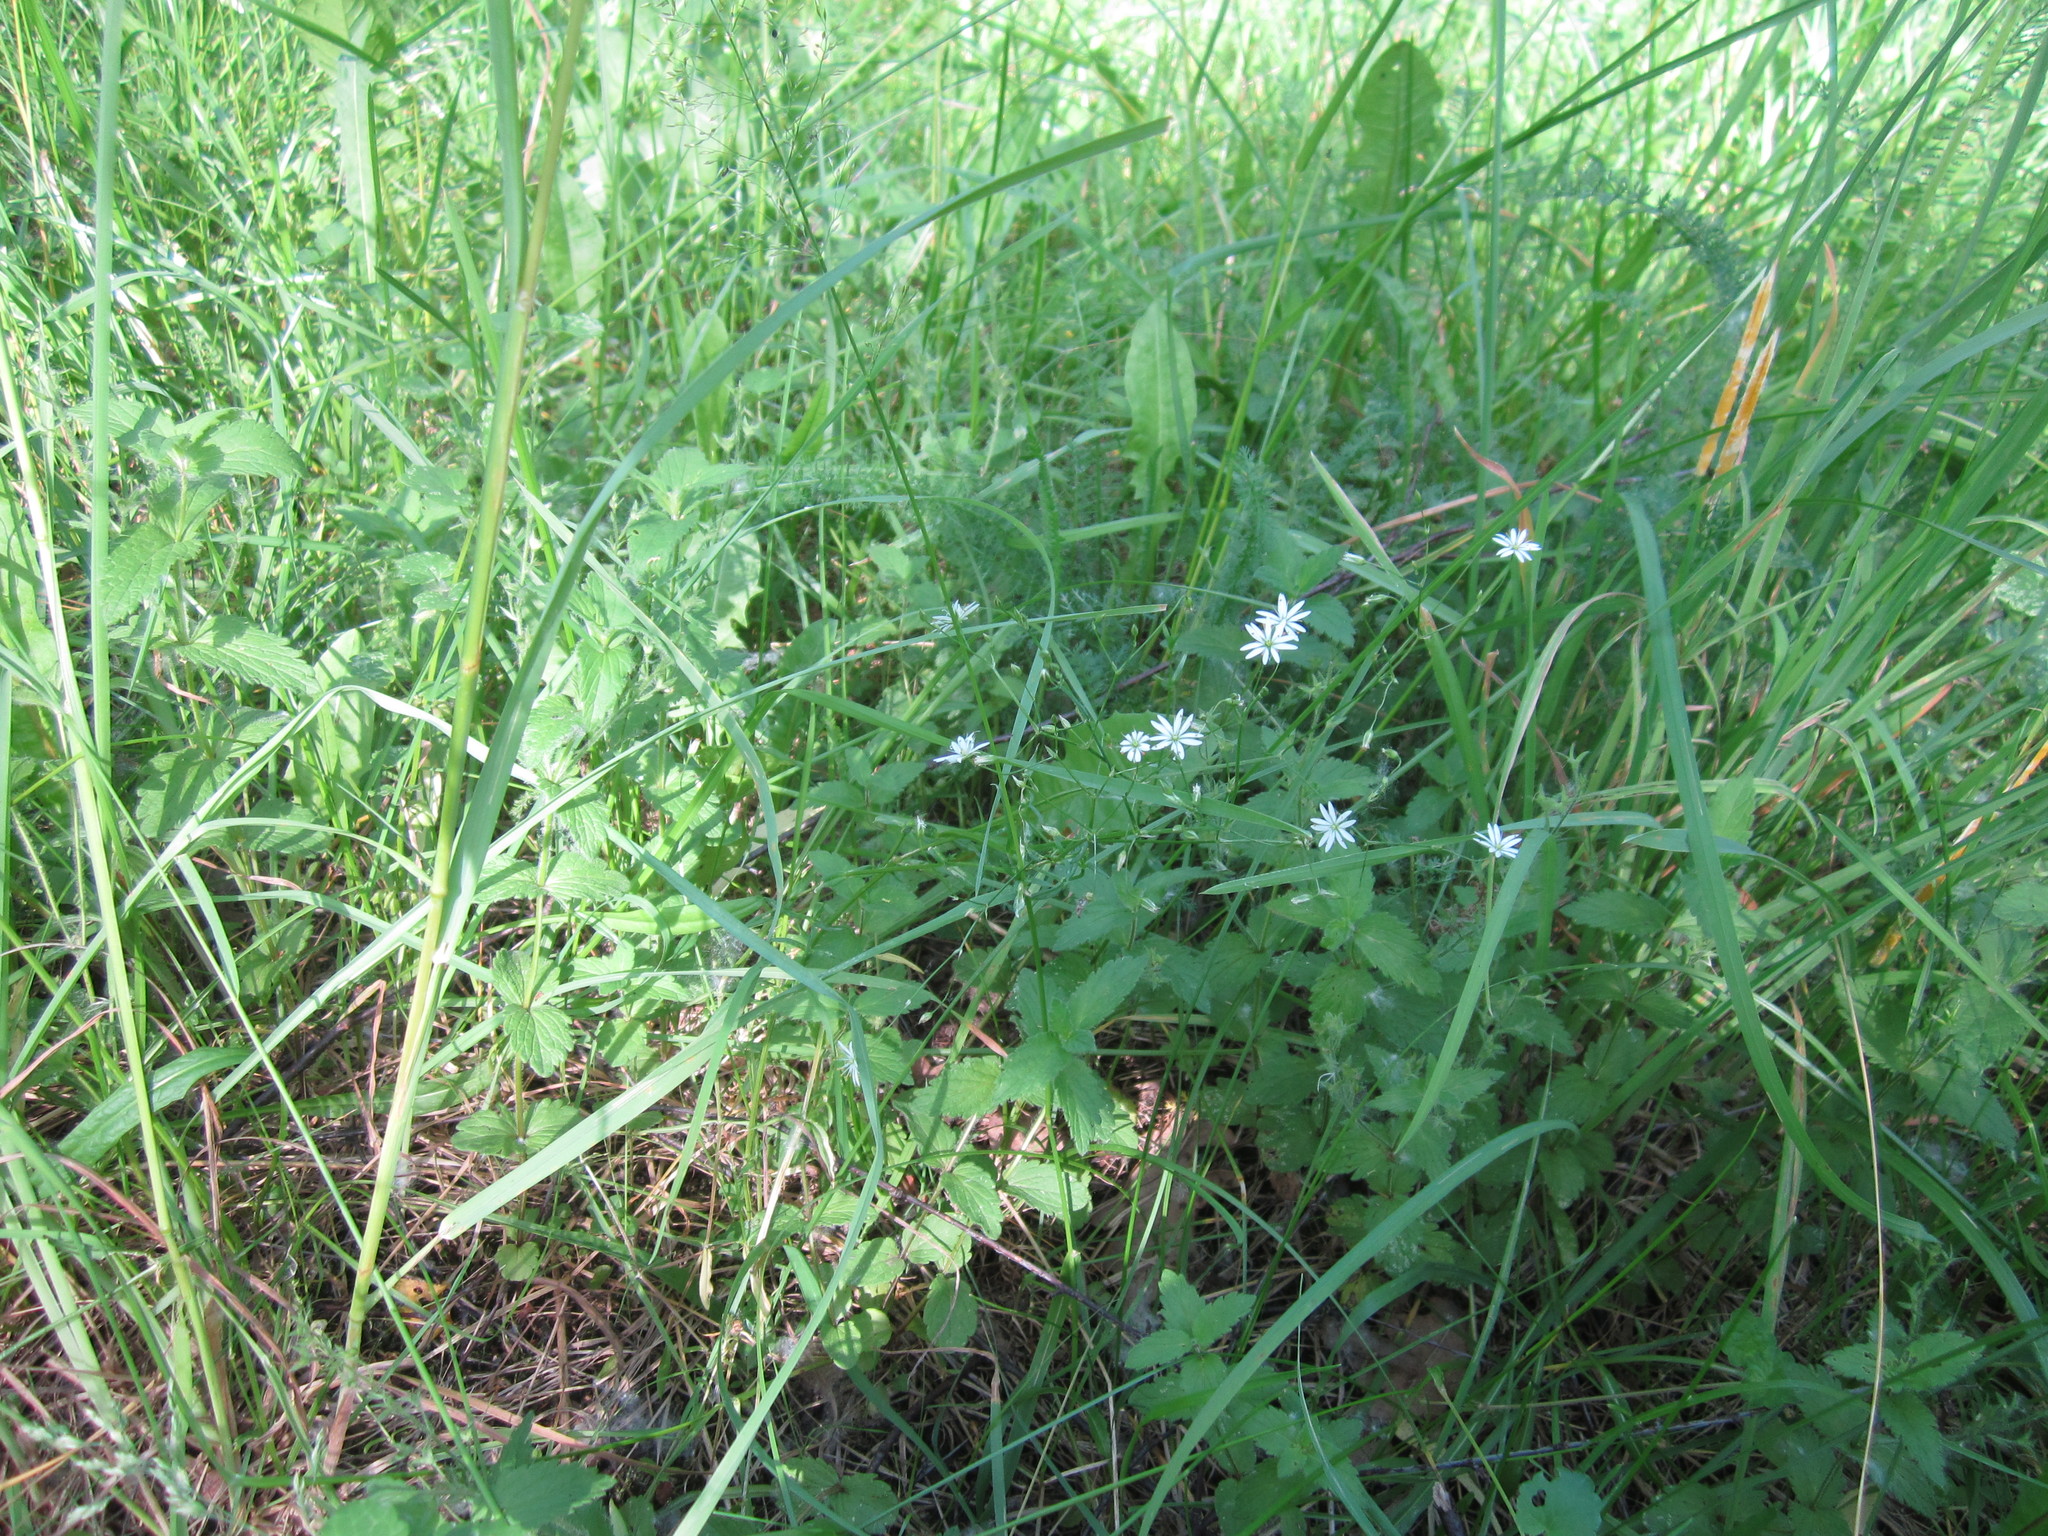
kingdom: Plantae
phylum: Tracheophyta
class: Magnoliopsida
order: Caryophyllales
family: Caryophyllaceae
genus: Stellaria
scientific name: Stellaria graminea
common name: Grass-like starwort
